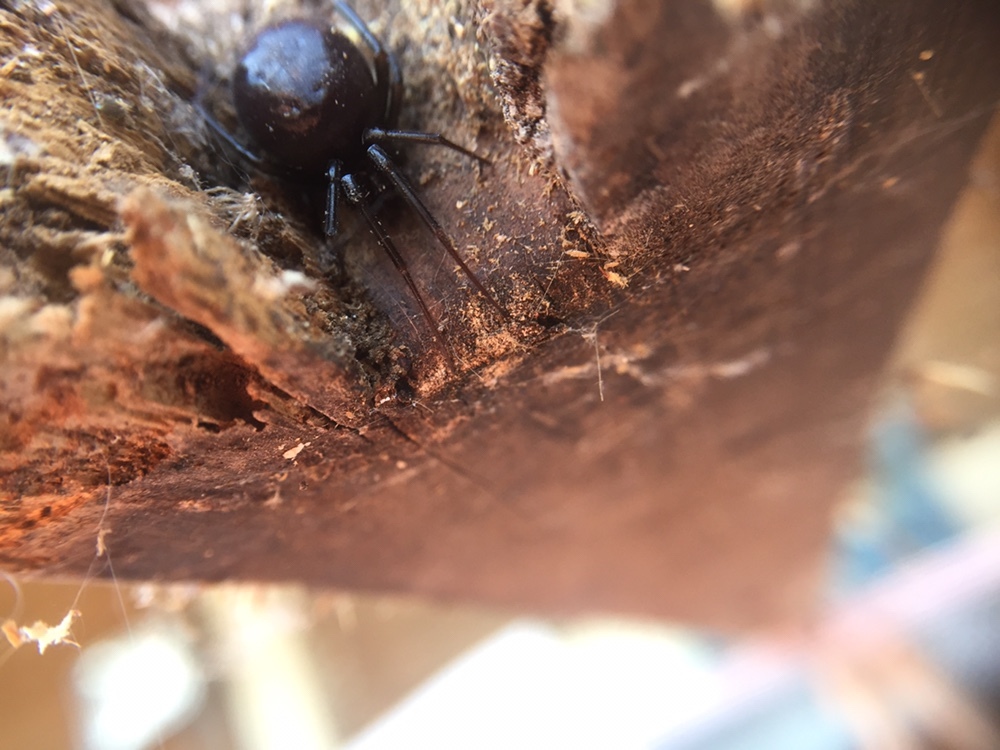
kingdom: Animalia
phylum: Arthropoda
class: Arachnida
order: Araneae
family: Theridiidae
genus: Steatoda
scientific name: Steatoda grossa
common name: False black widow
